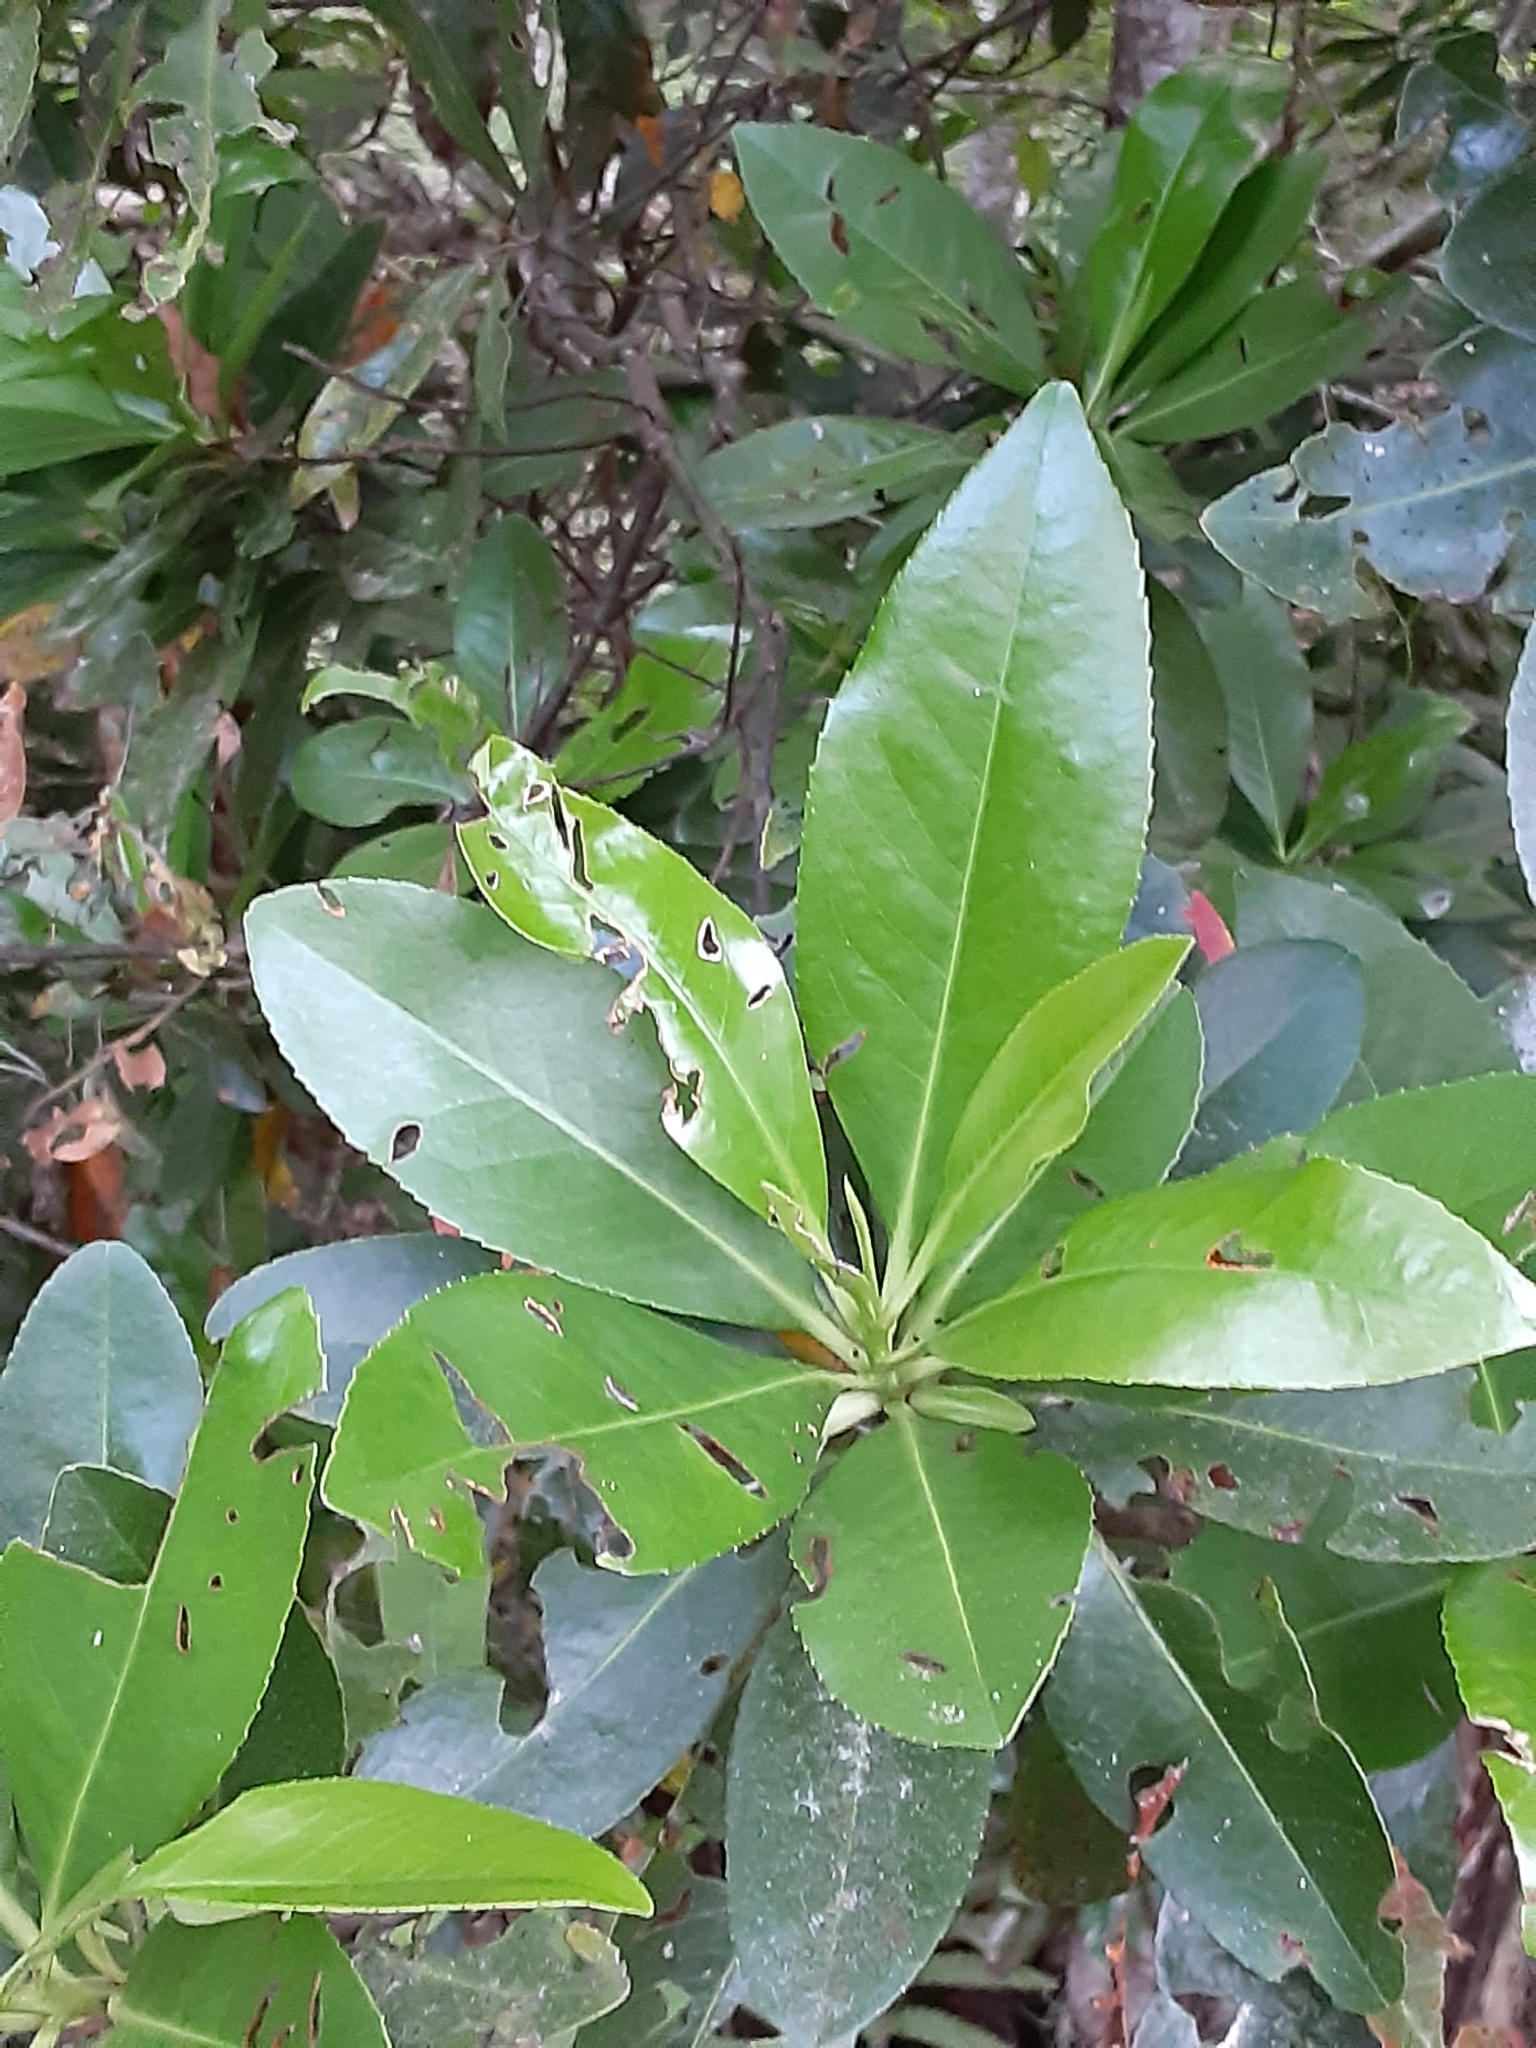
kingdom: Plantae
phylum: Tracheophyta
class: Magnoliopsida
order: Ericales
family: Theaceae
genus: Gordonia
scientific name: Gordonia lasianthus
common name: Loblolly bay
